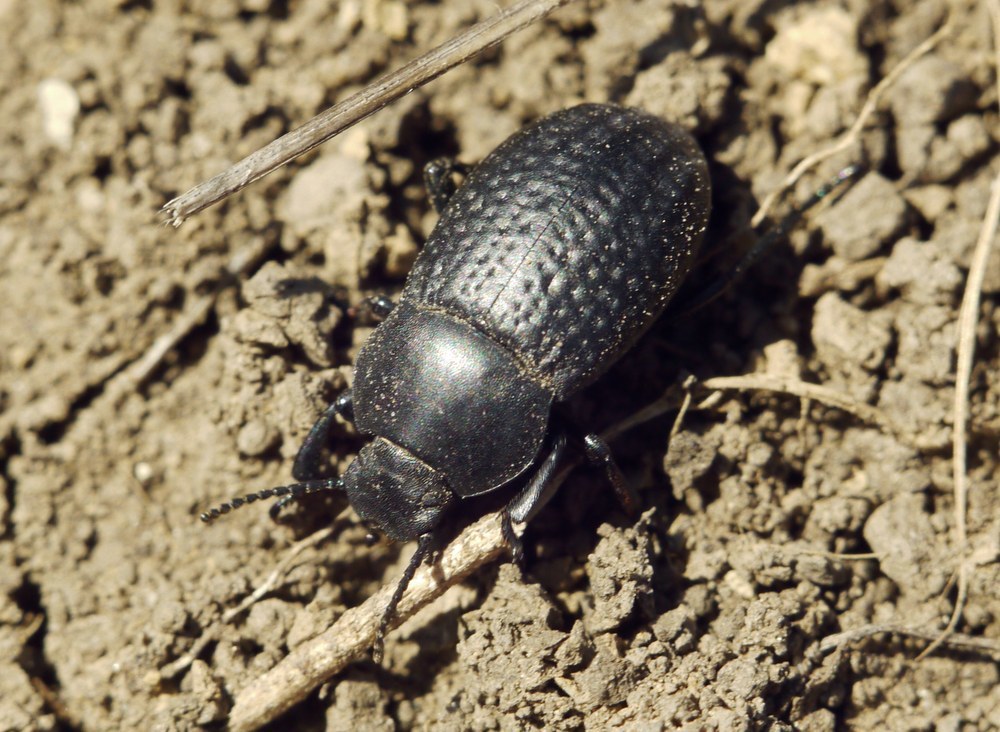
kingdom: Animalia
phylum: Arthropoda
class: Insecta
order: Coleoptera
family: Tenebrionidae
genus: Dendarus
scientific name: Dendarus punctatus
